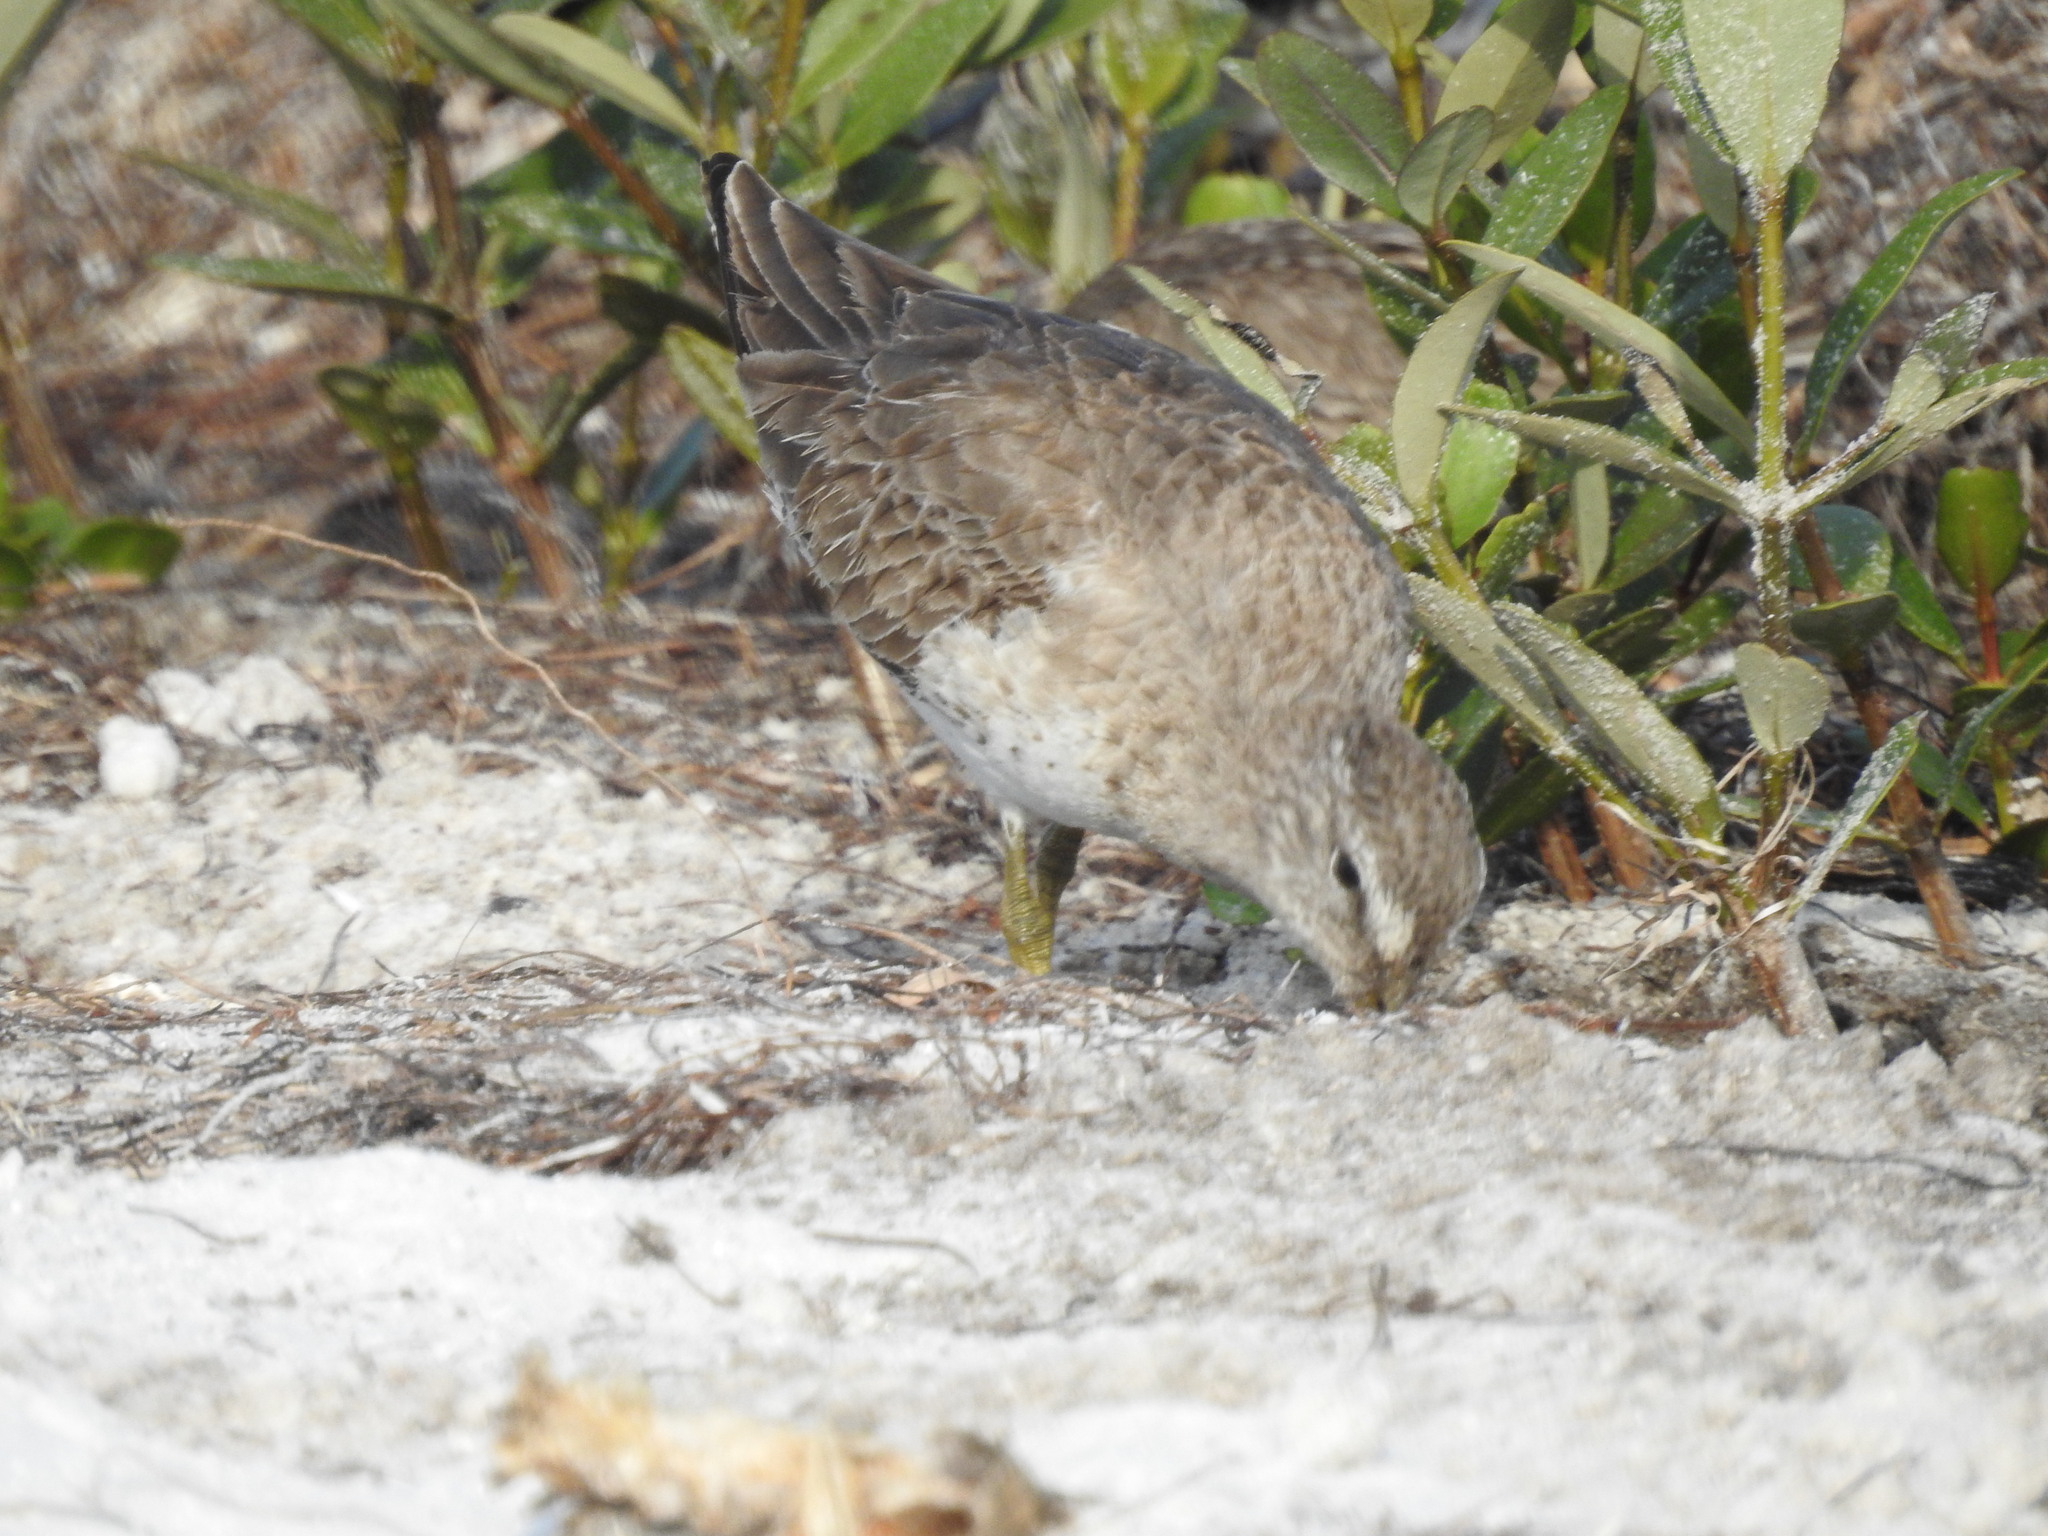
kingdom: Animalia
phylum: Chordata
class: Aves
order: Charadriiformes
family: Scolopacidae
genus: Limnodromus
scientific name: Limnodromus griseus
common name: Short-billed dowitcher
